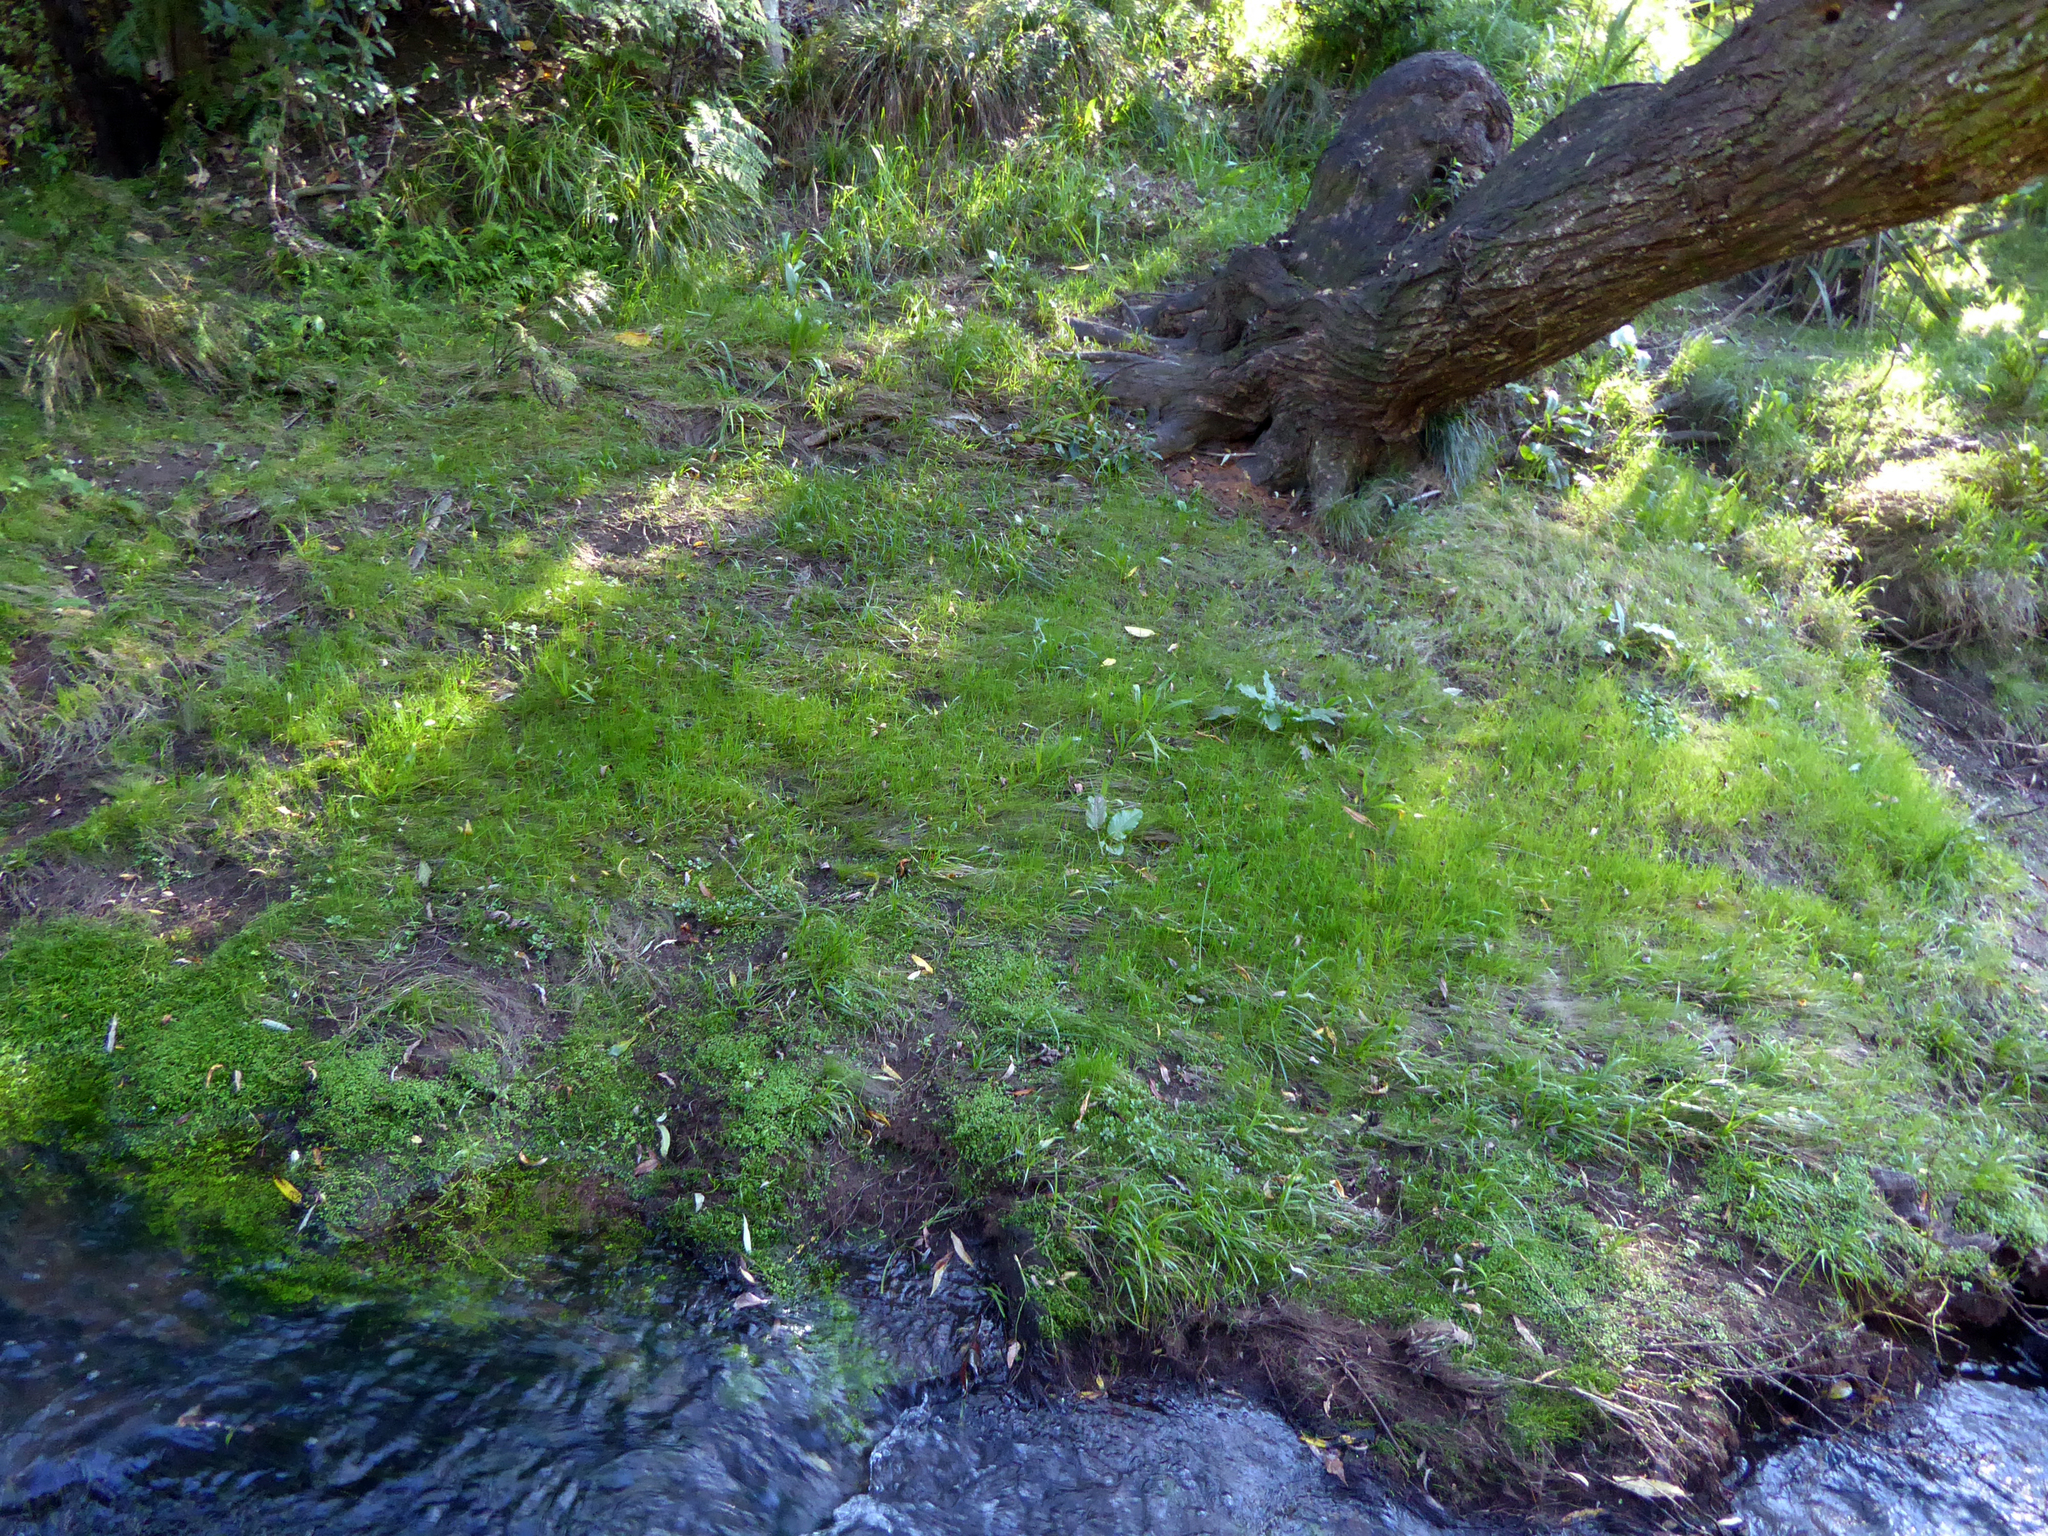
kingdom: Plantae
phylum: Tracheophyta
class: Magnoliopsida
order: Apiales
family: Apiaceae
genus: Lilaeopsis
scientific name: Lilaeopsis minor
